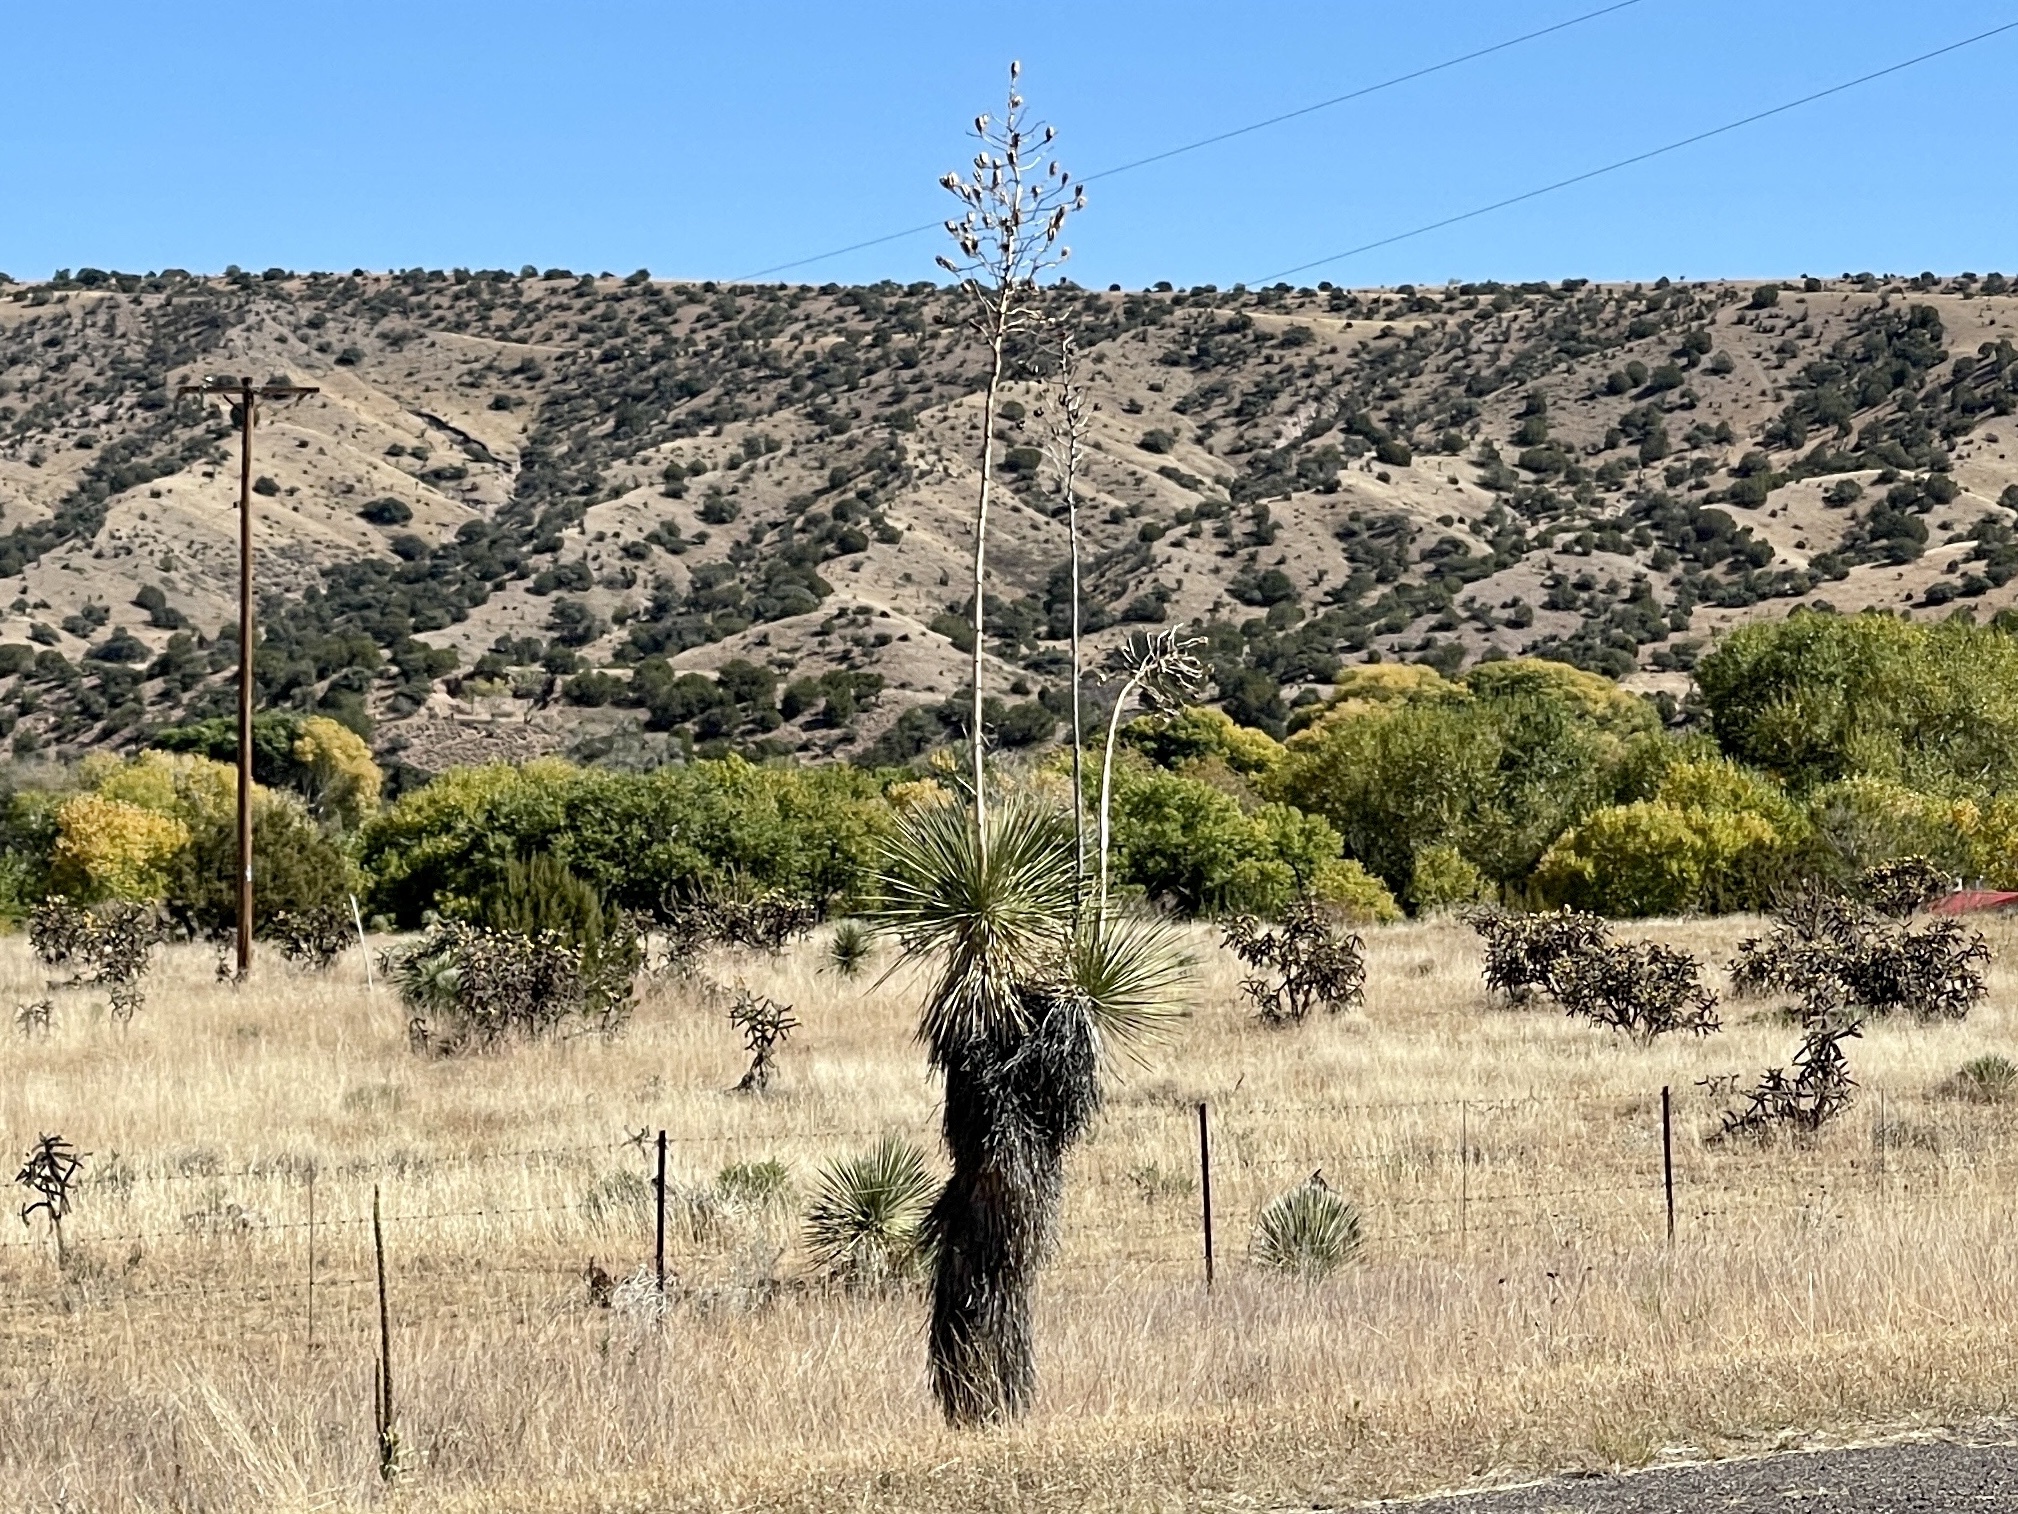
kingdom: Plantae
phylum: Tracheophyta
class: Liliopsida
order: Asparagales
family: Asparagaceae
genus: Yucca
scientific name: Yucca elata
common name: Palmella
